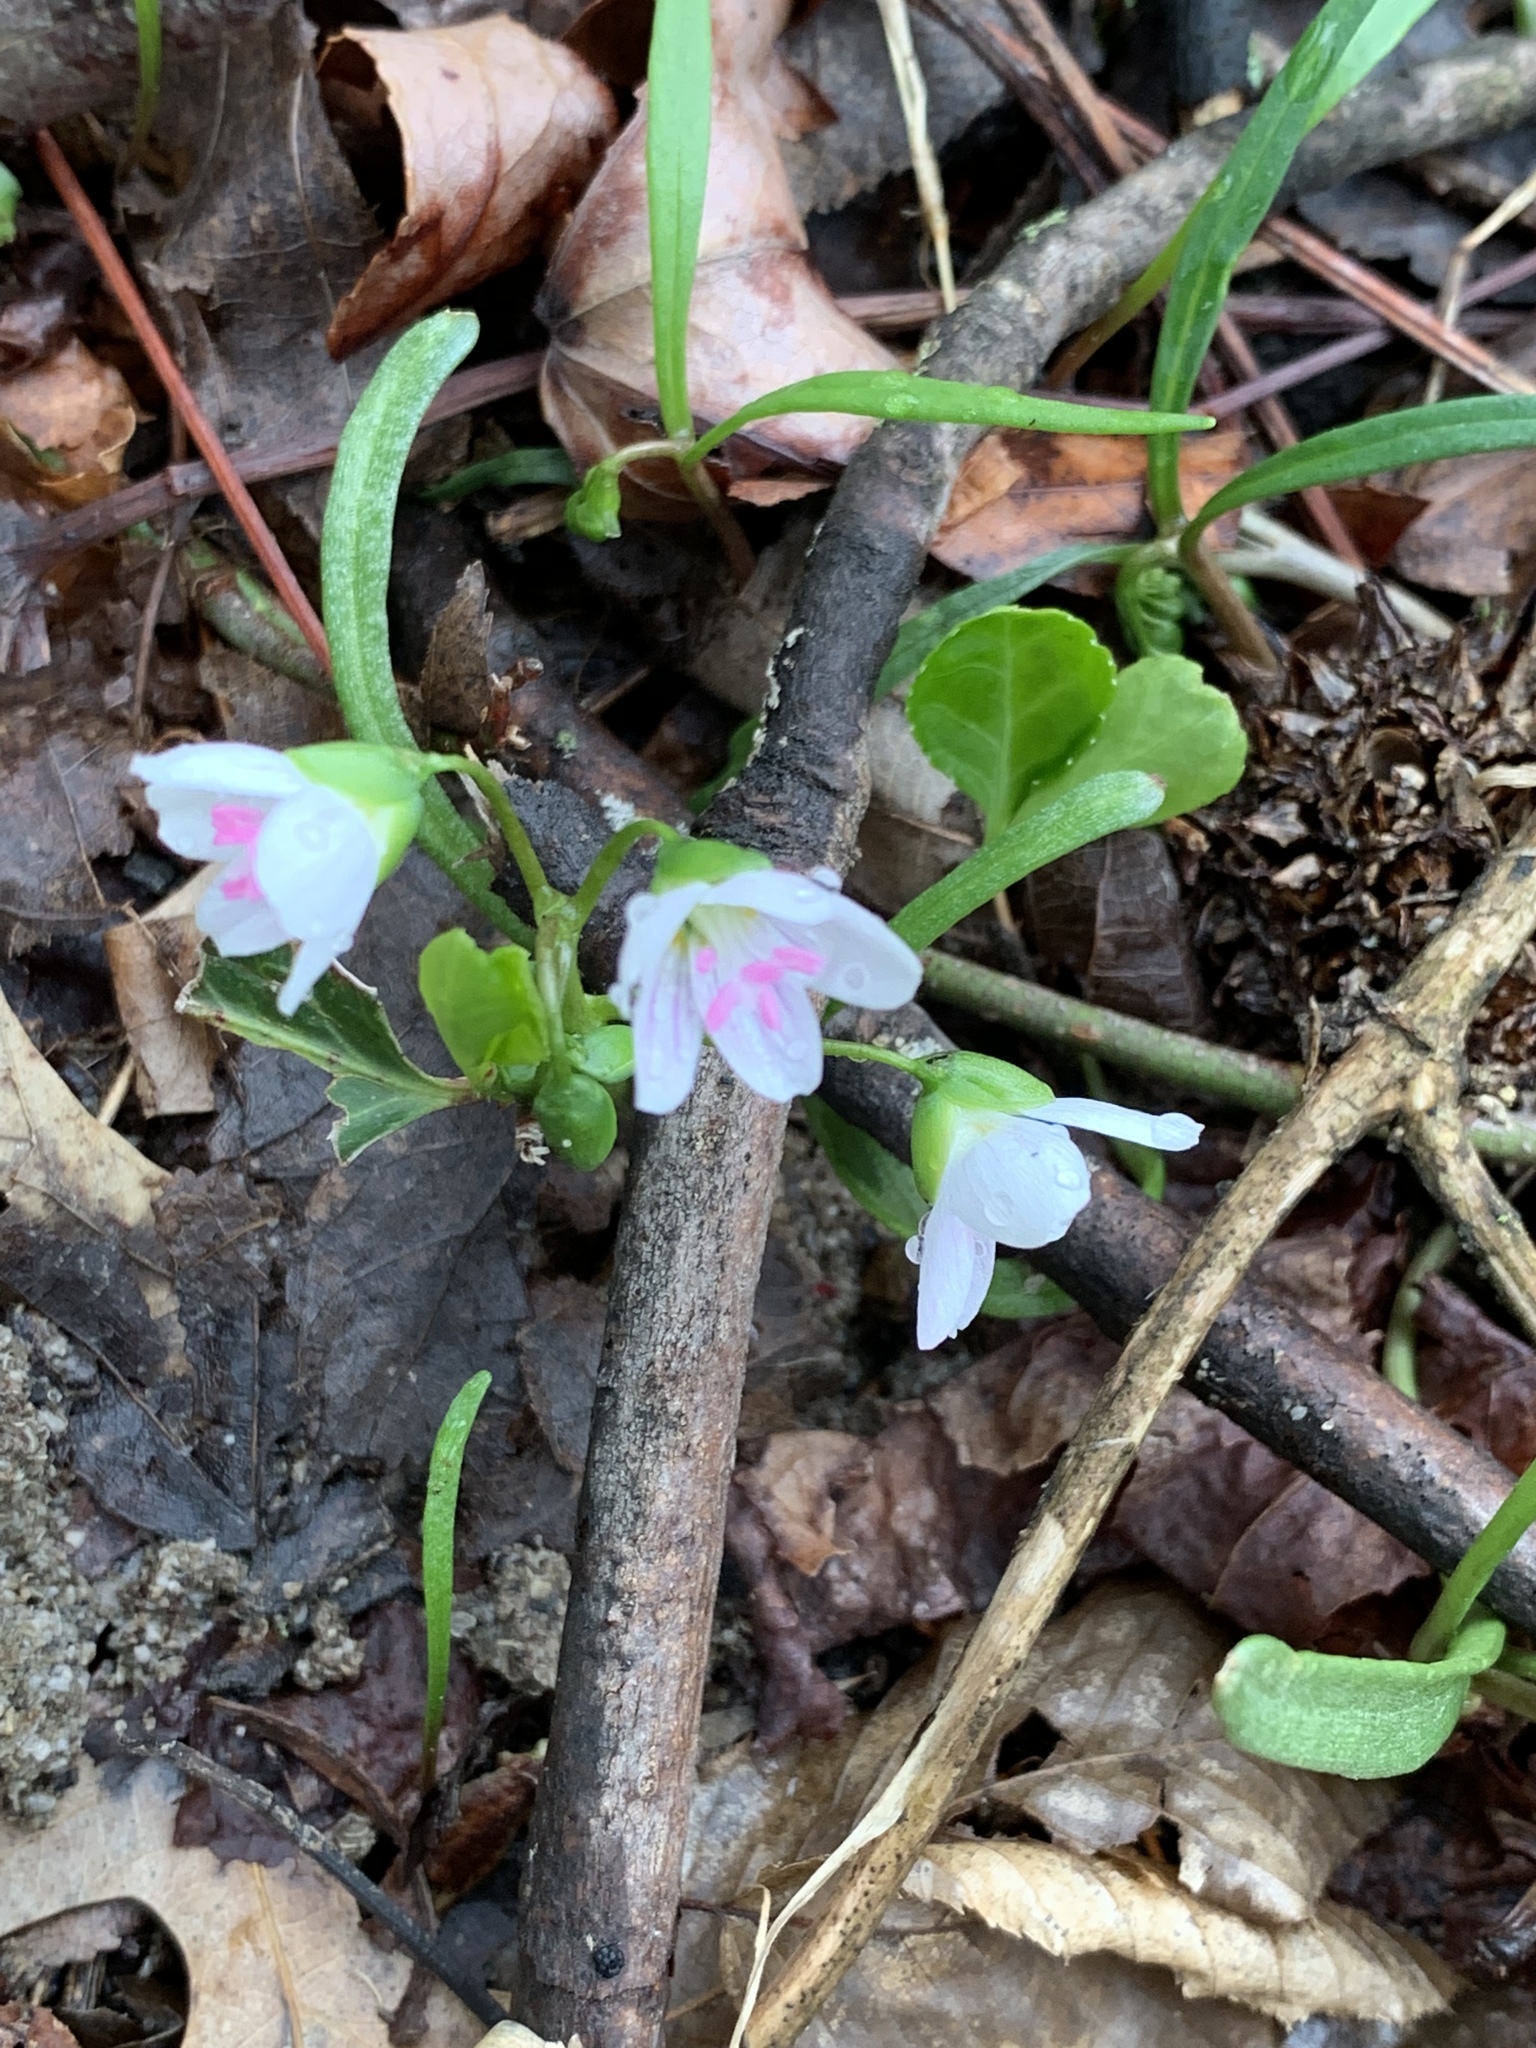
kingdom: Plantae
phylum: Tracheophyta
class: Magnoliopsida
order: Caryophyllales
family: Montiaceae
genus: Claytonia
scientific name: Claytonia virginica
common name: Virginia springbeauty
